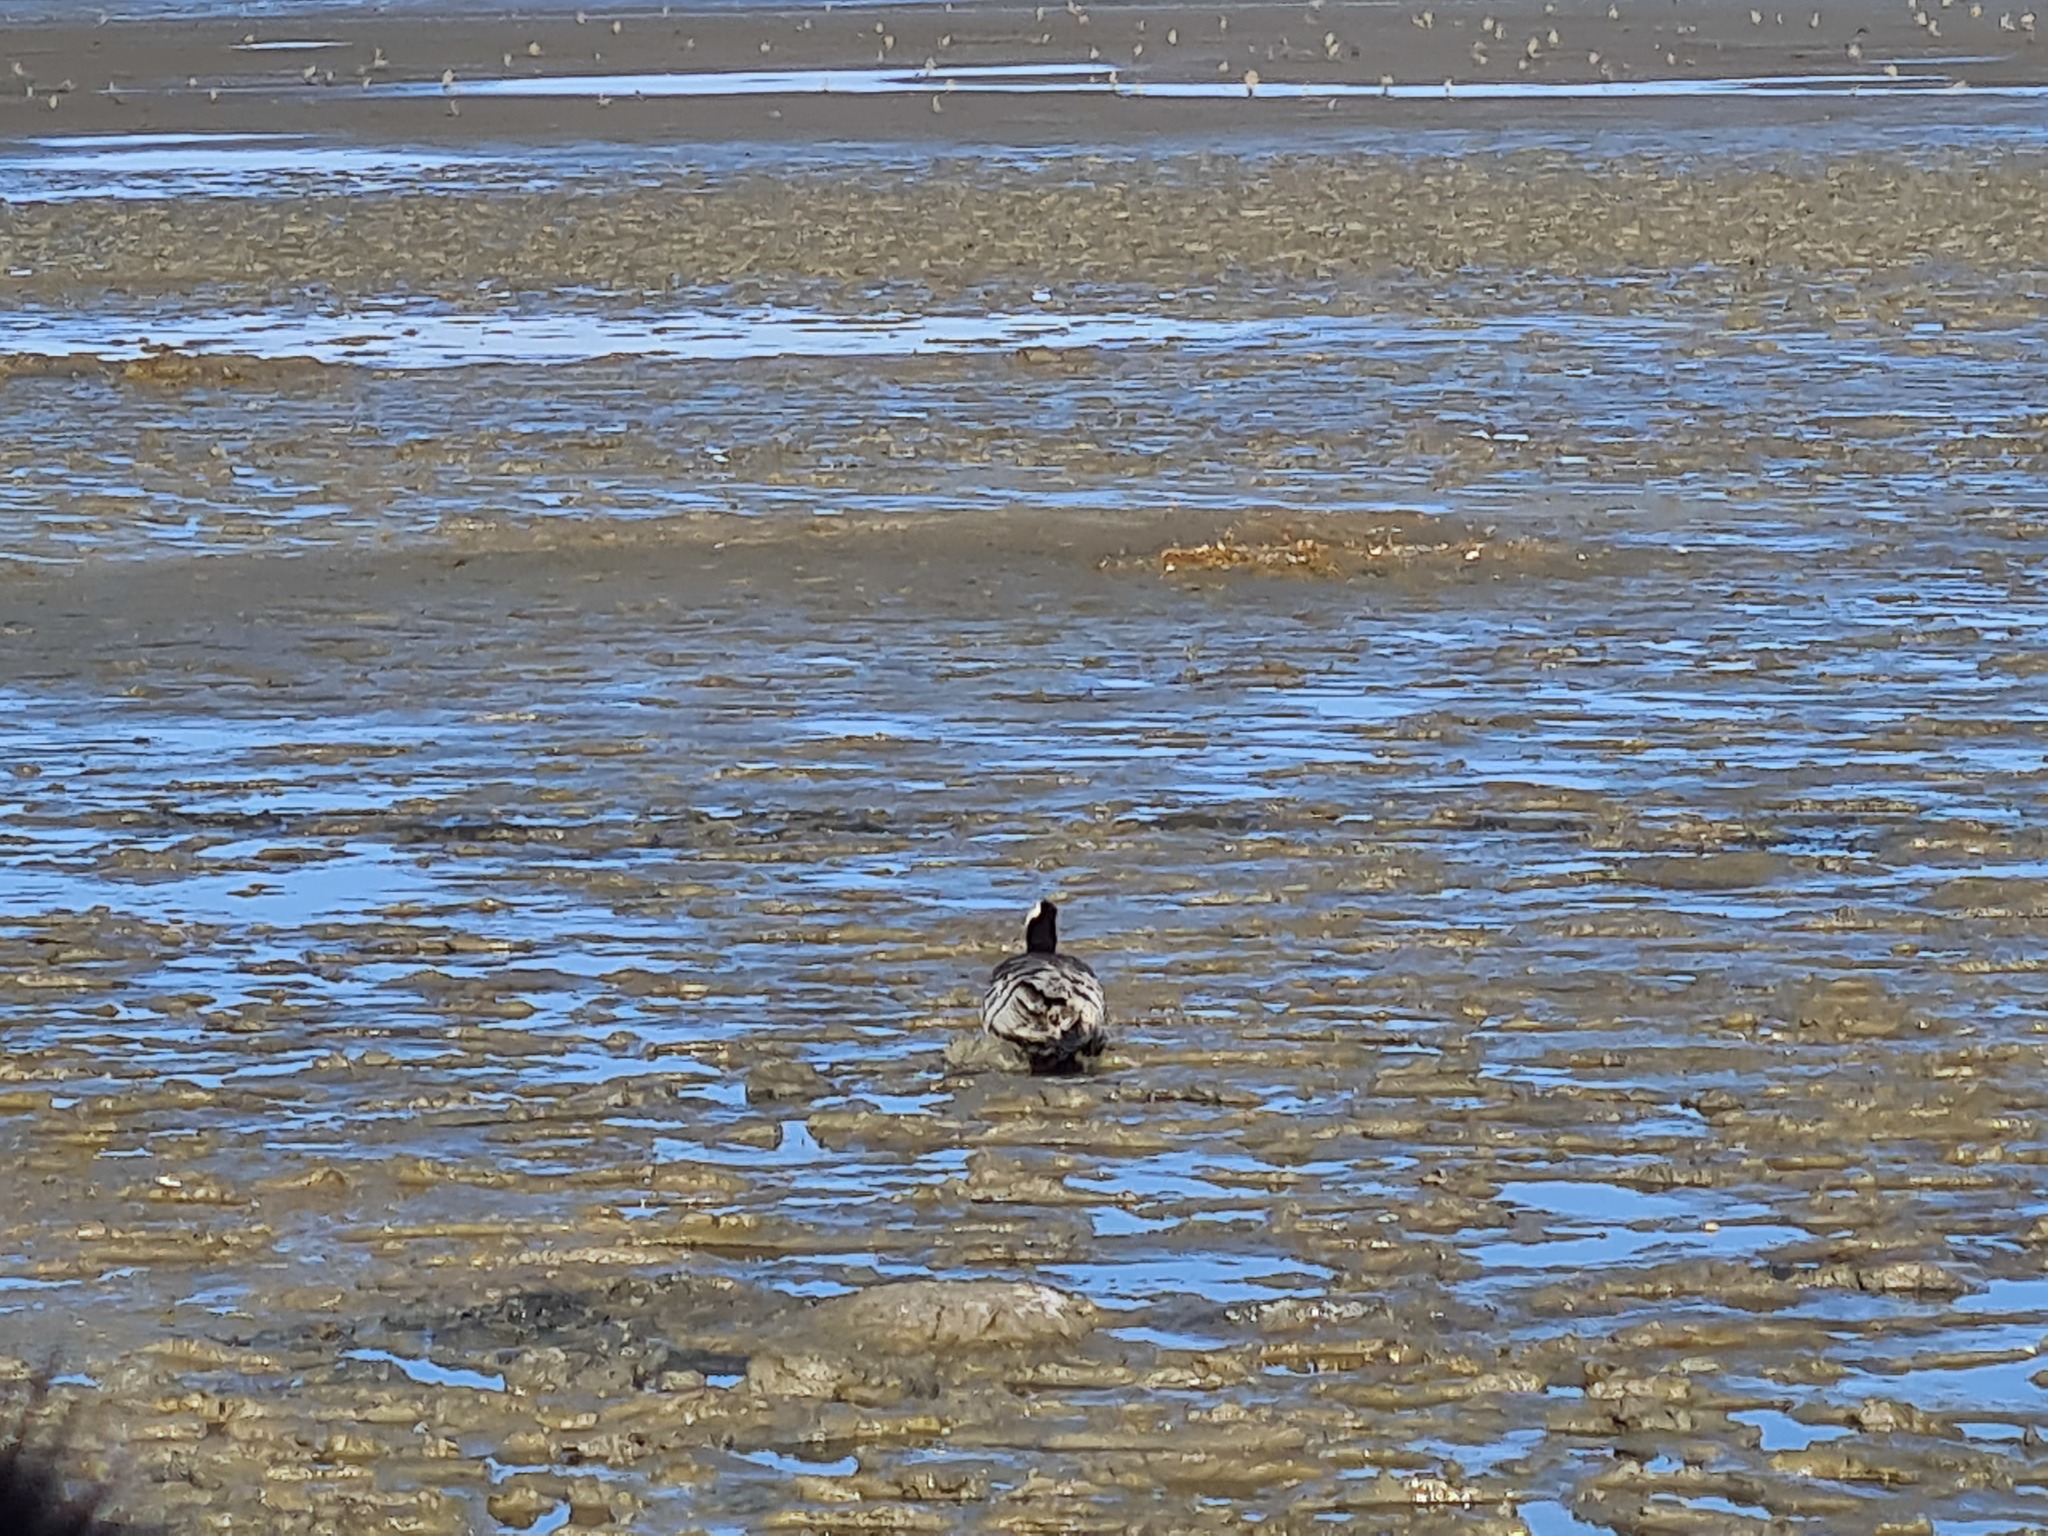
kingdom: Animalia
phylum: Chordata
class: Aves
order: Anseriformes
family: Anatidae
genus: Branta
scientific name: Branta leucopsis
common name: Barnacle goose
